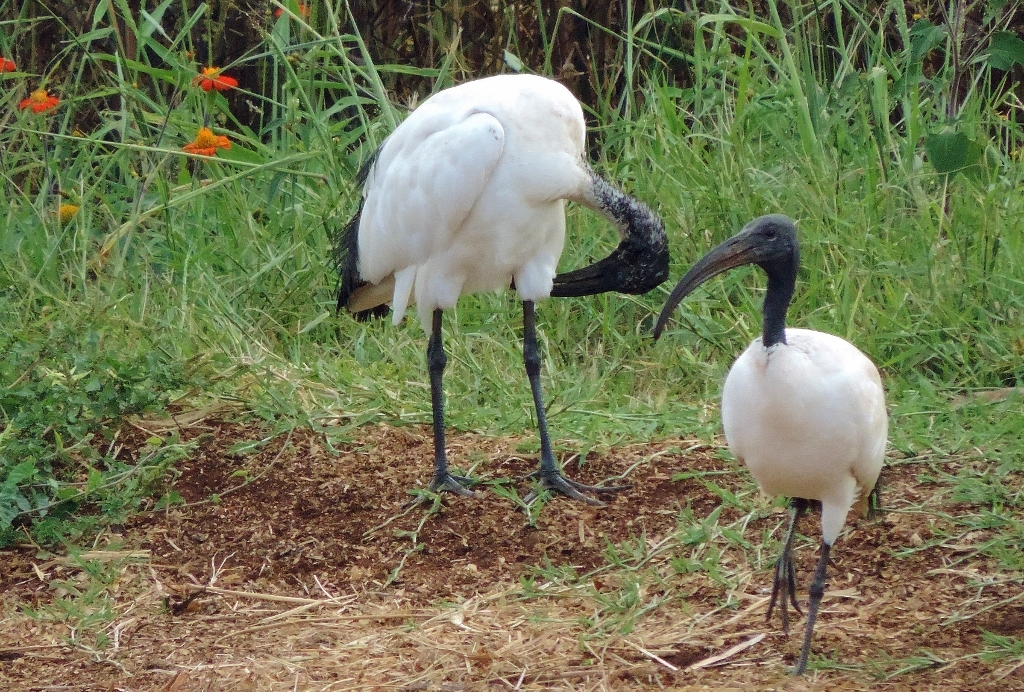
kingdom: Animalia
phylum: Chordata
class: Aves
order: Pelecaniformes
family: Threskiornithidae
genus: Threskiornis
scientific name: Threskiornis aethiopicus
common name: Sacred ibis
